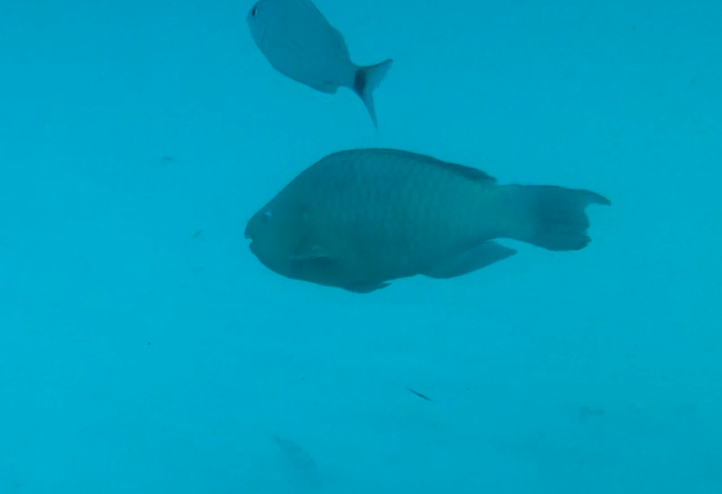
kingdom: Animalia
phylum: Chordata
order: Perciformes
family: Scaridae
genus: Scarus
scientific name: Scarus guacamaia
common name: Rainbow parrotfish
